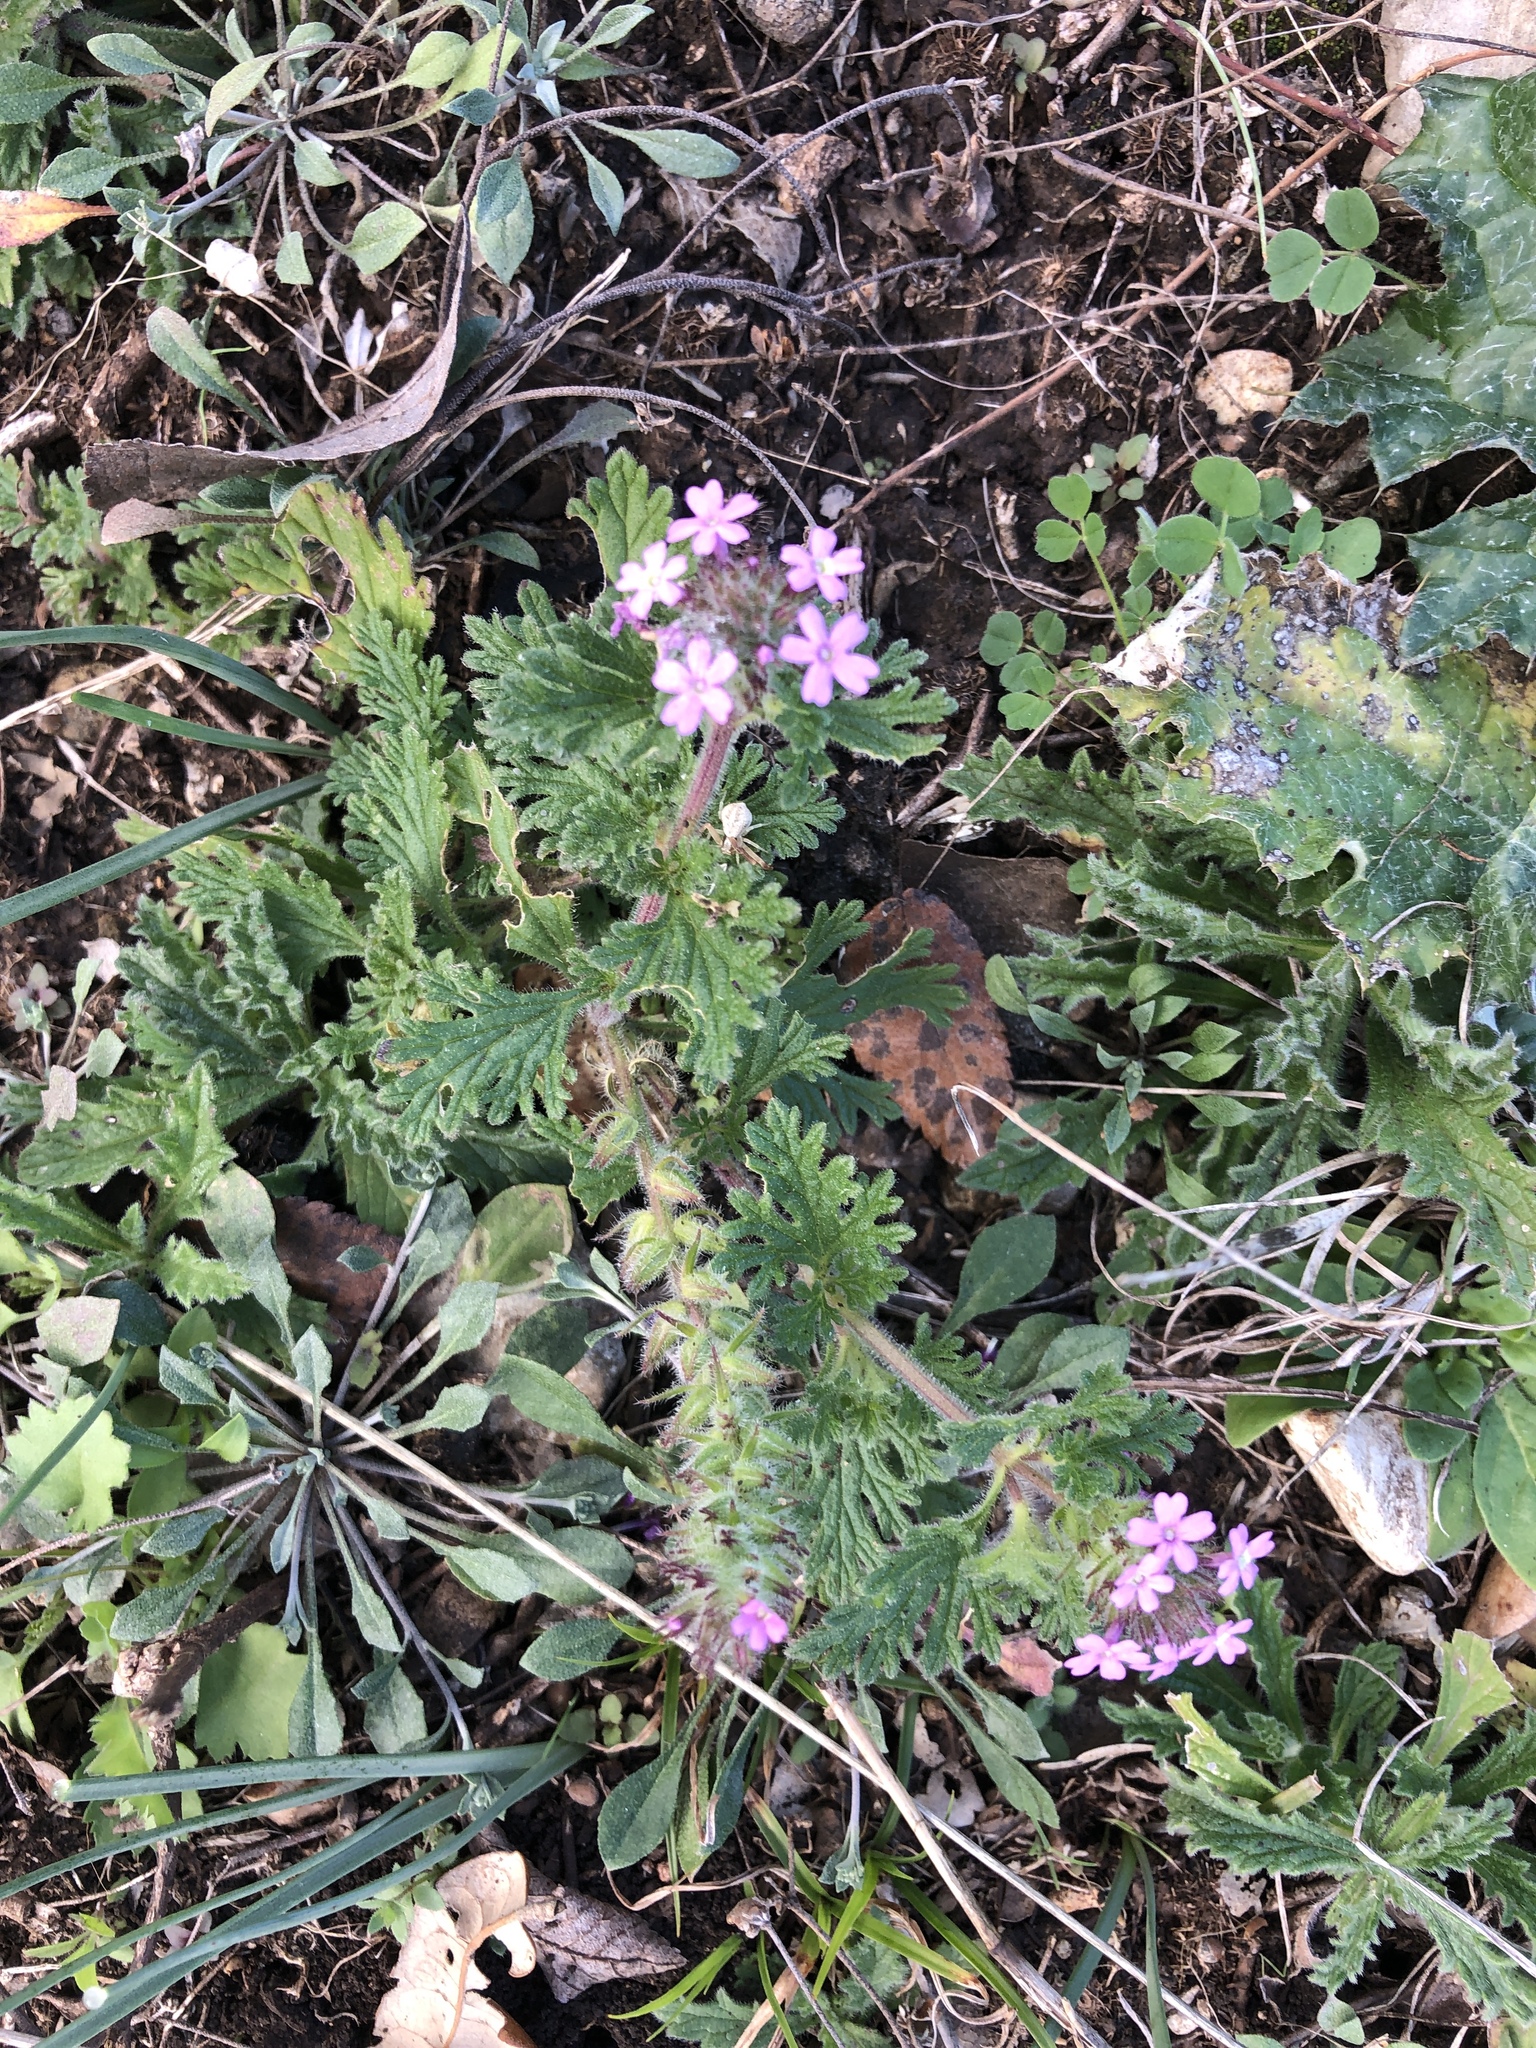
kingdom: Plantae
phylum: Tracheophyta
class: Magnoliopsida
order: Lamiales
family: Verbenaceae
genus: Verbena
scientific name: Verbena bipinnatifida
